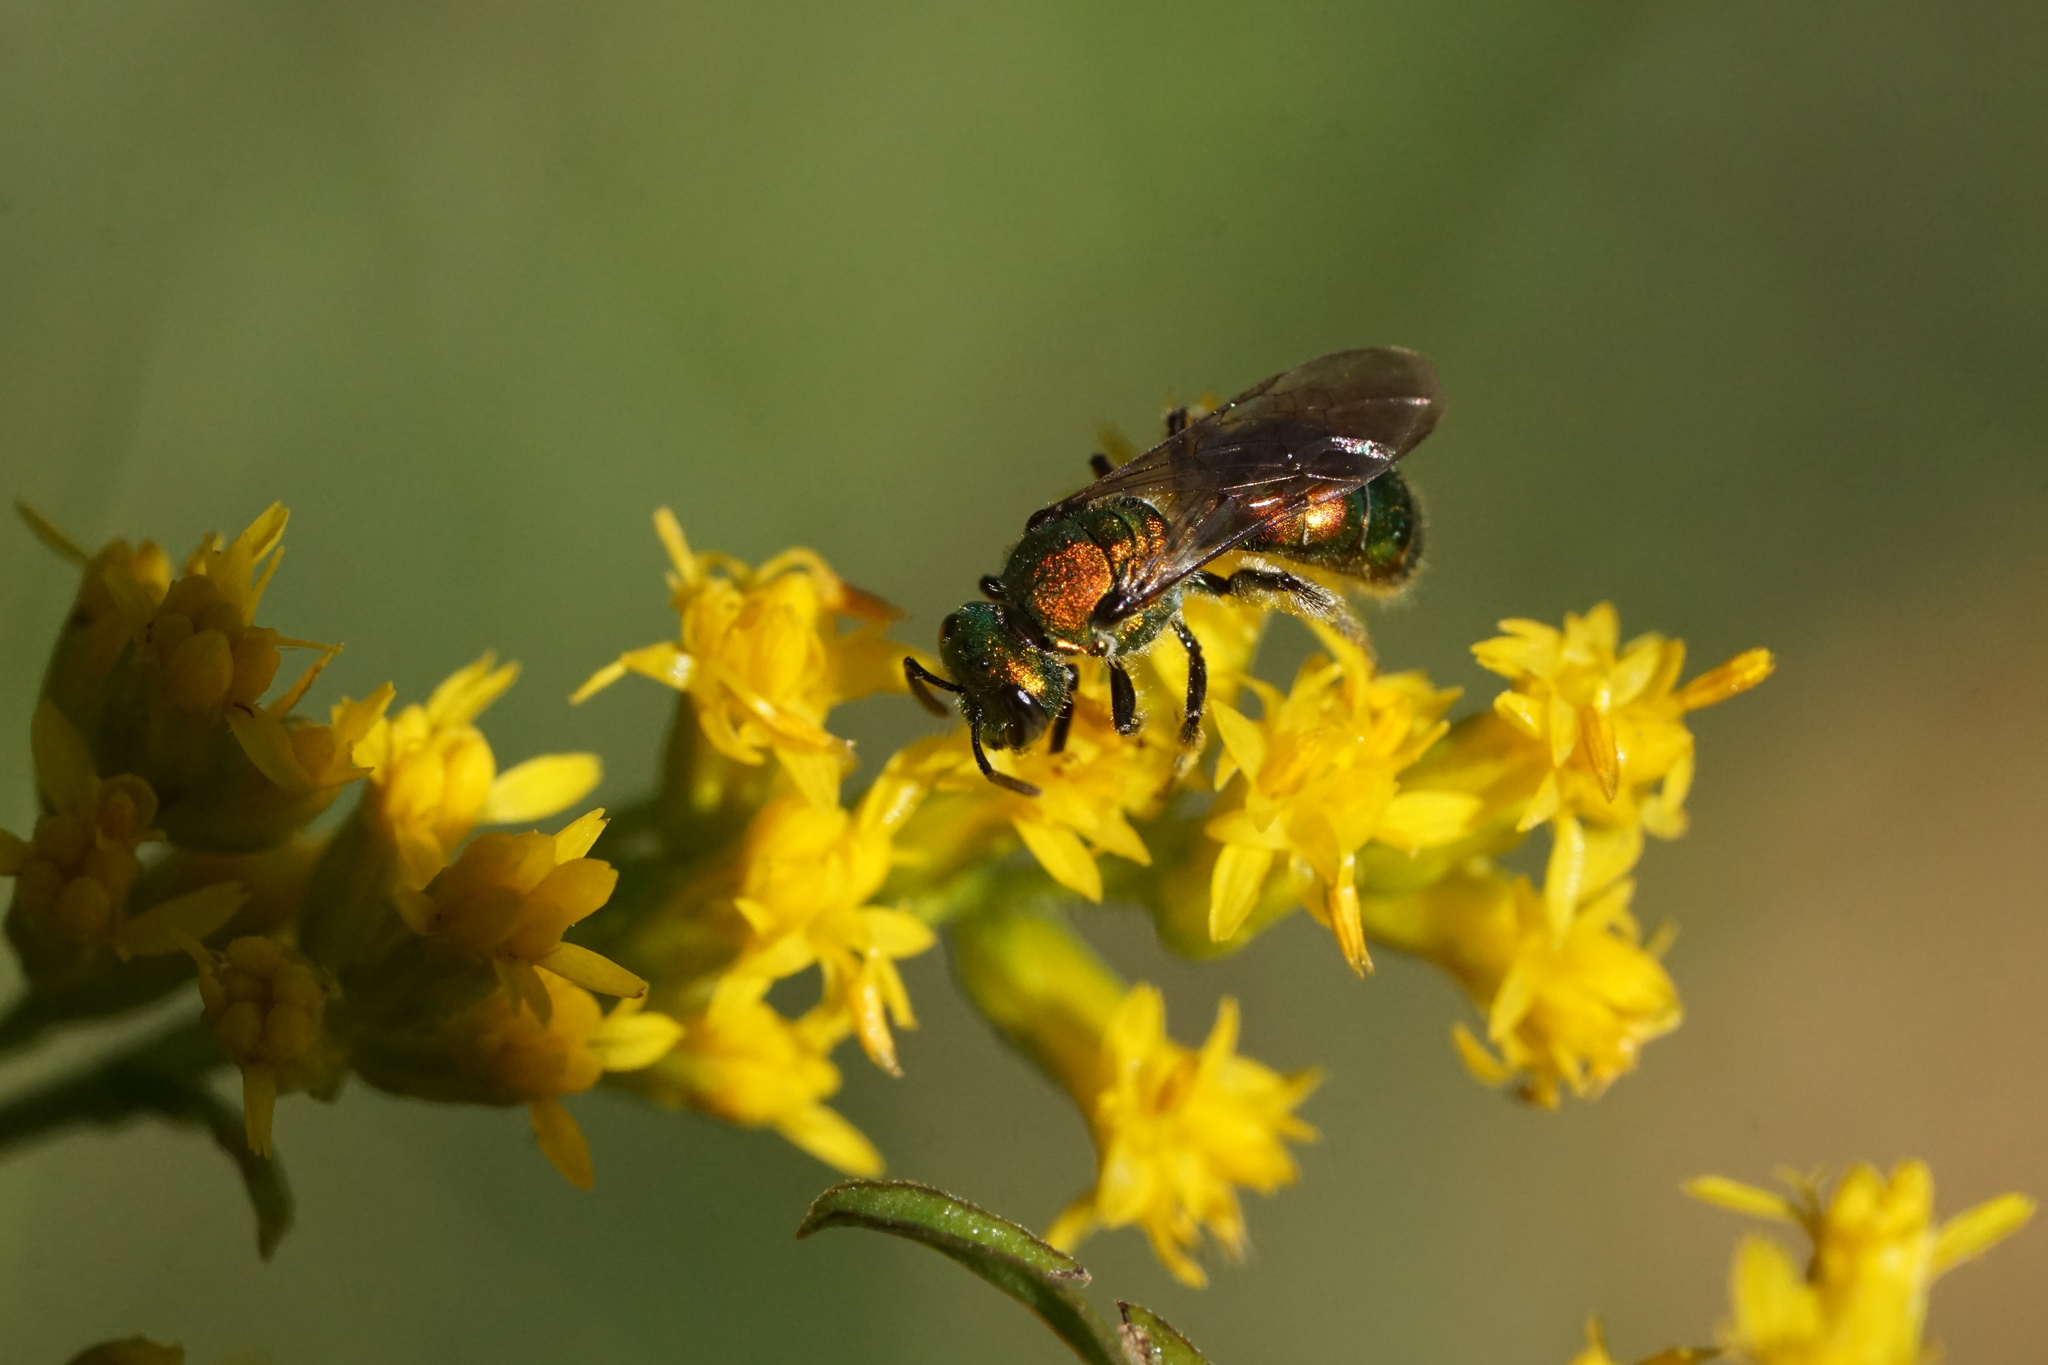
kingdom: Animalia
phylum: Arthropoda
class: Insecta
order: Hymenoptera
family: Halictidae
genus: Augochlora
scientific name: Augochlora pura
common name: Pure green sweat bee
